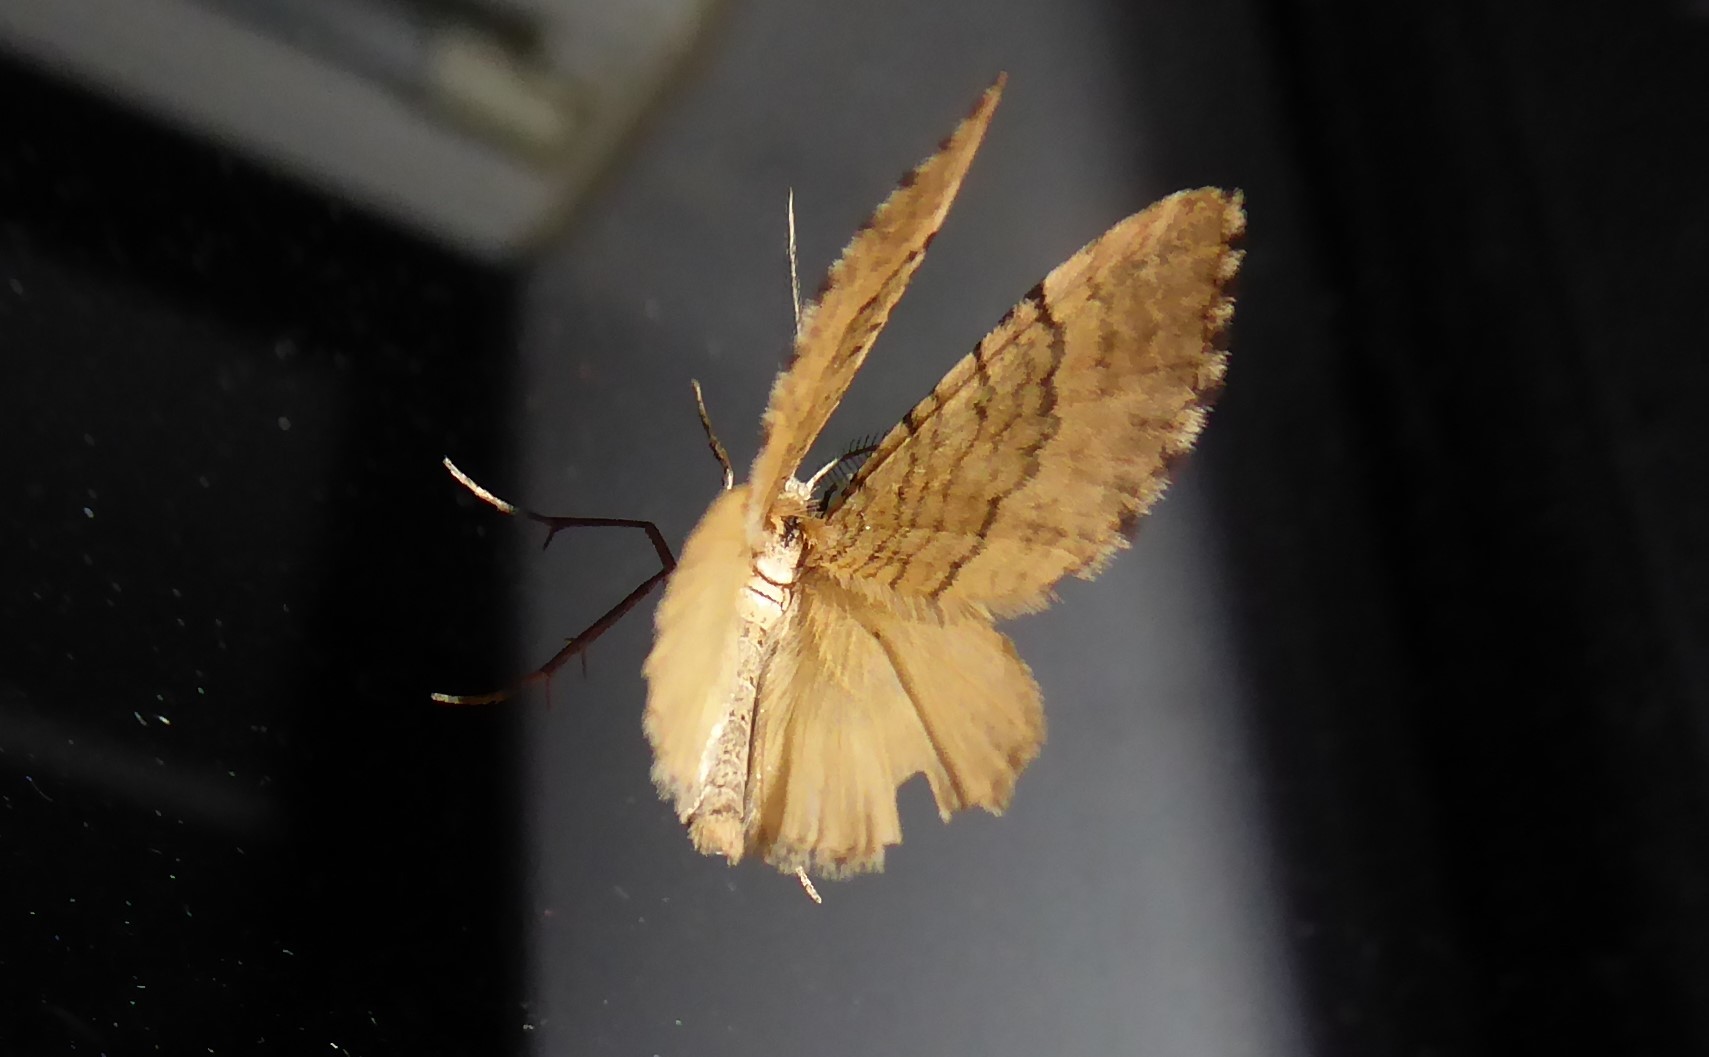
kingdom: Animalia
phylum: Arthropoda
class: Insecta
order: Lepidoptera
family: Geometridae
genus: Asaphodes
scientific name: Asaphodes aegrota
